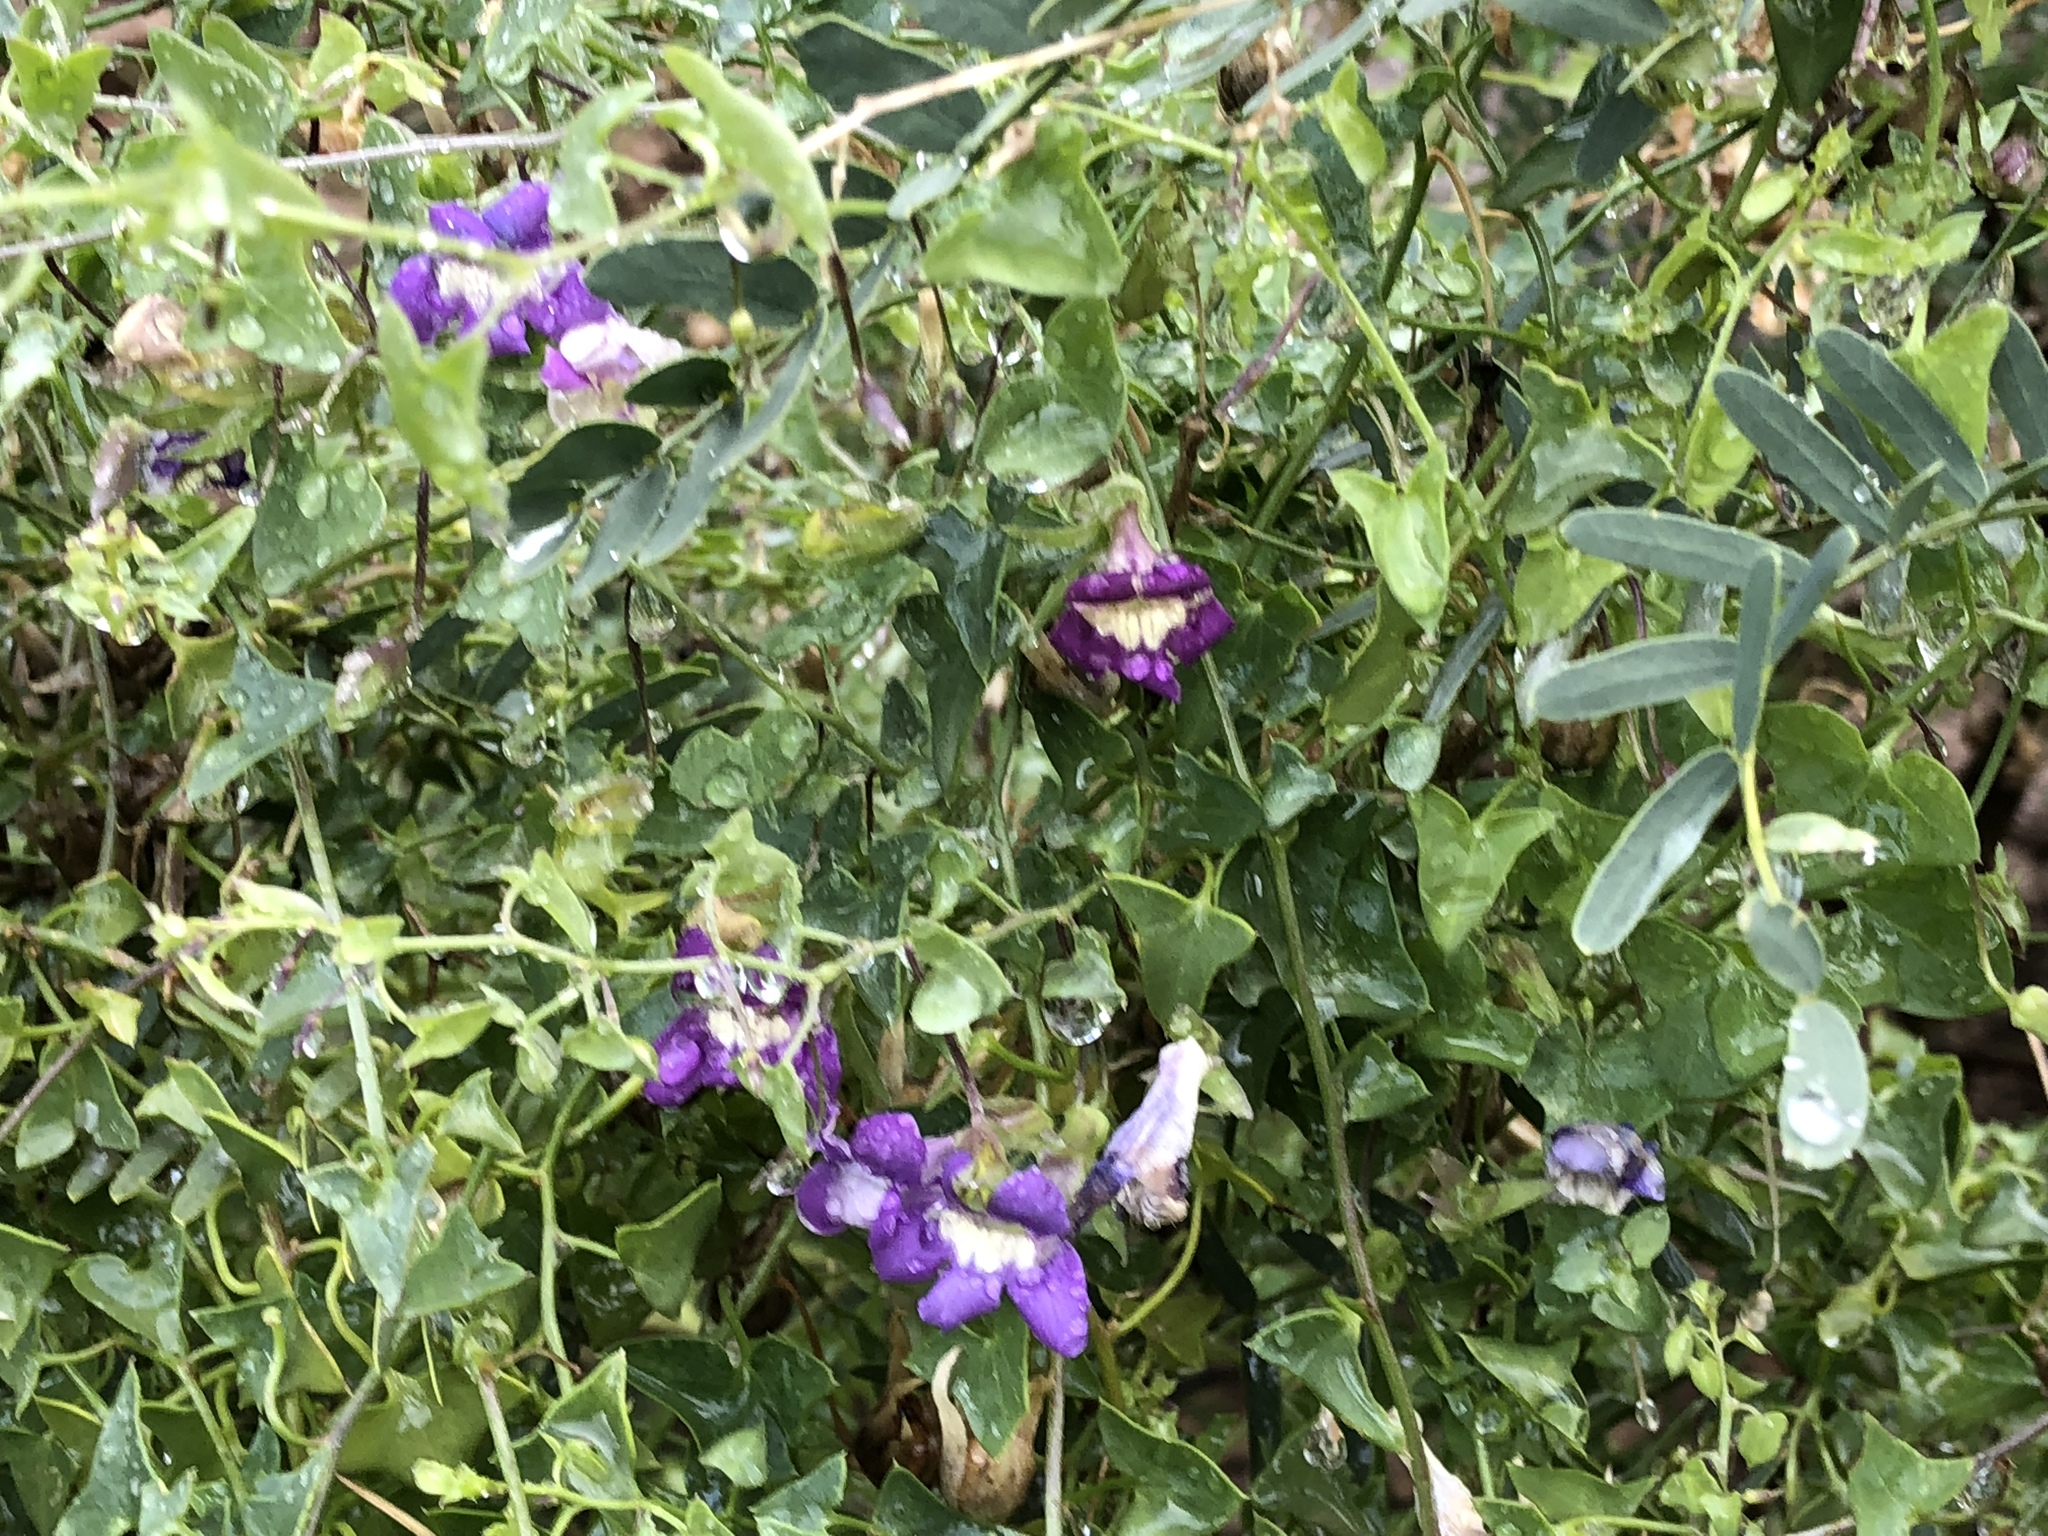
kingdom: Plantae
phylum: Tracheophyta
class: Magnoliopsida
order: Lamiales
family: Plantaginaceae
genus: Maurandella
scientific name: Maurandella antirrhiniflora
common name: Violet twining-snapdragon
